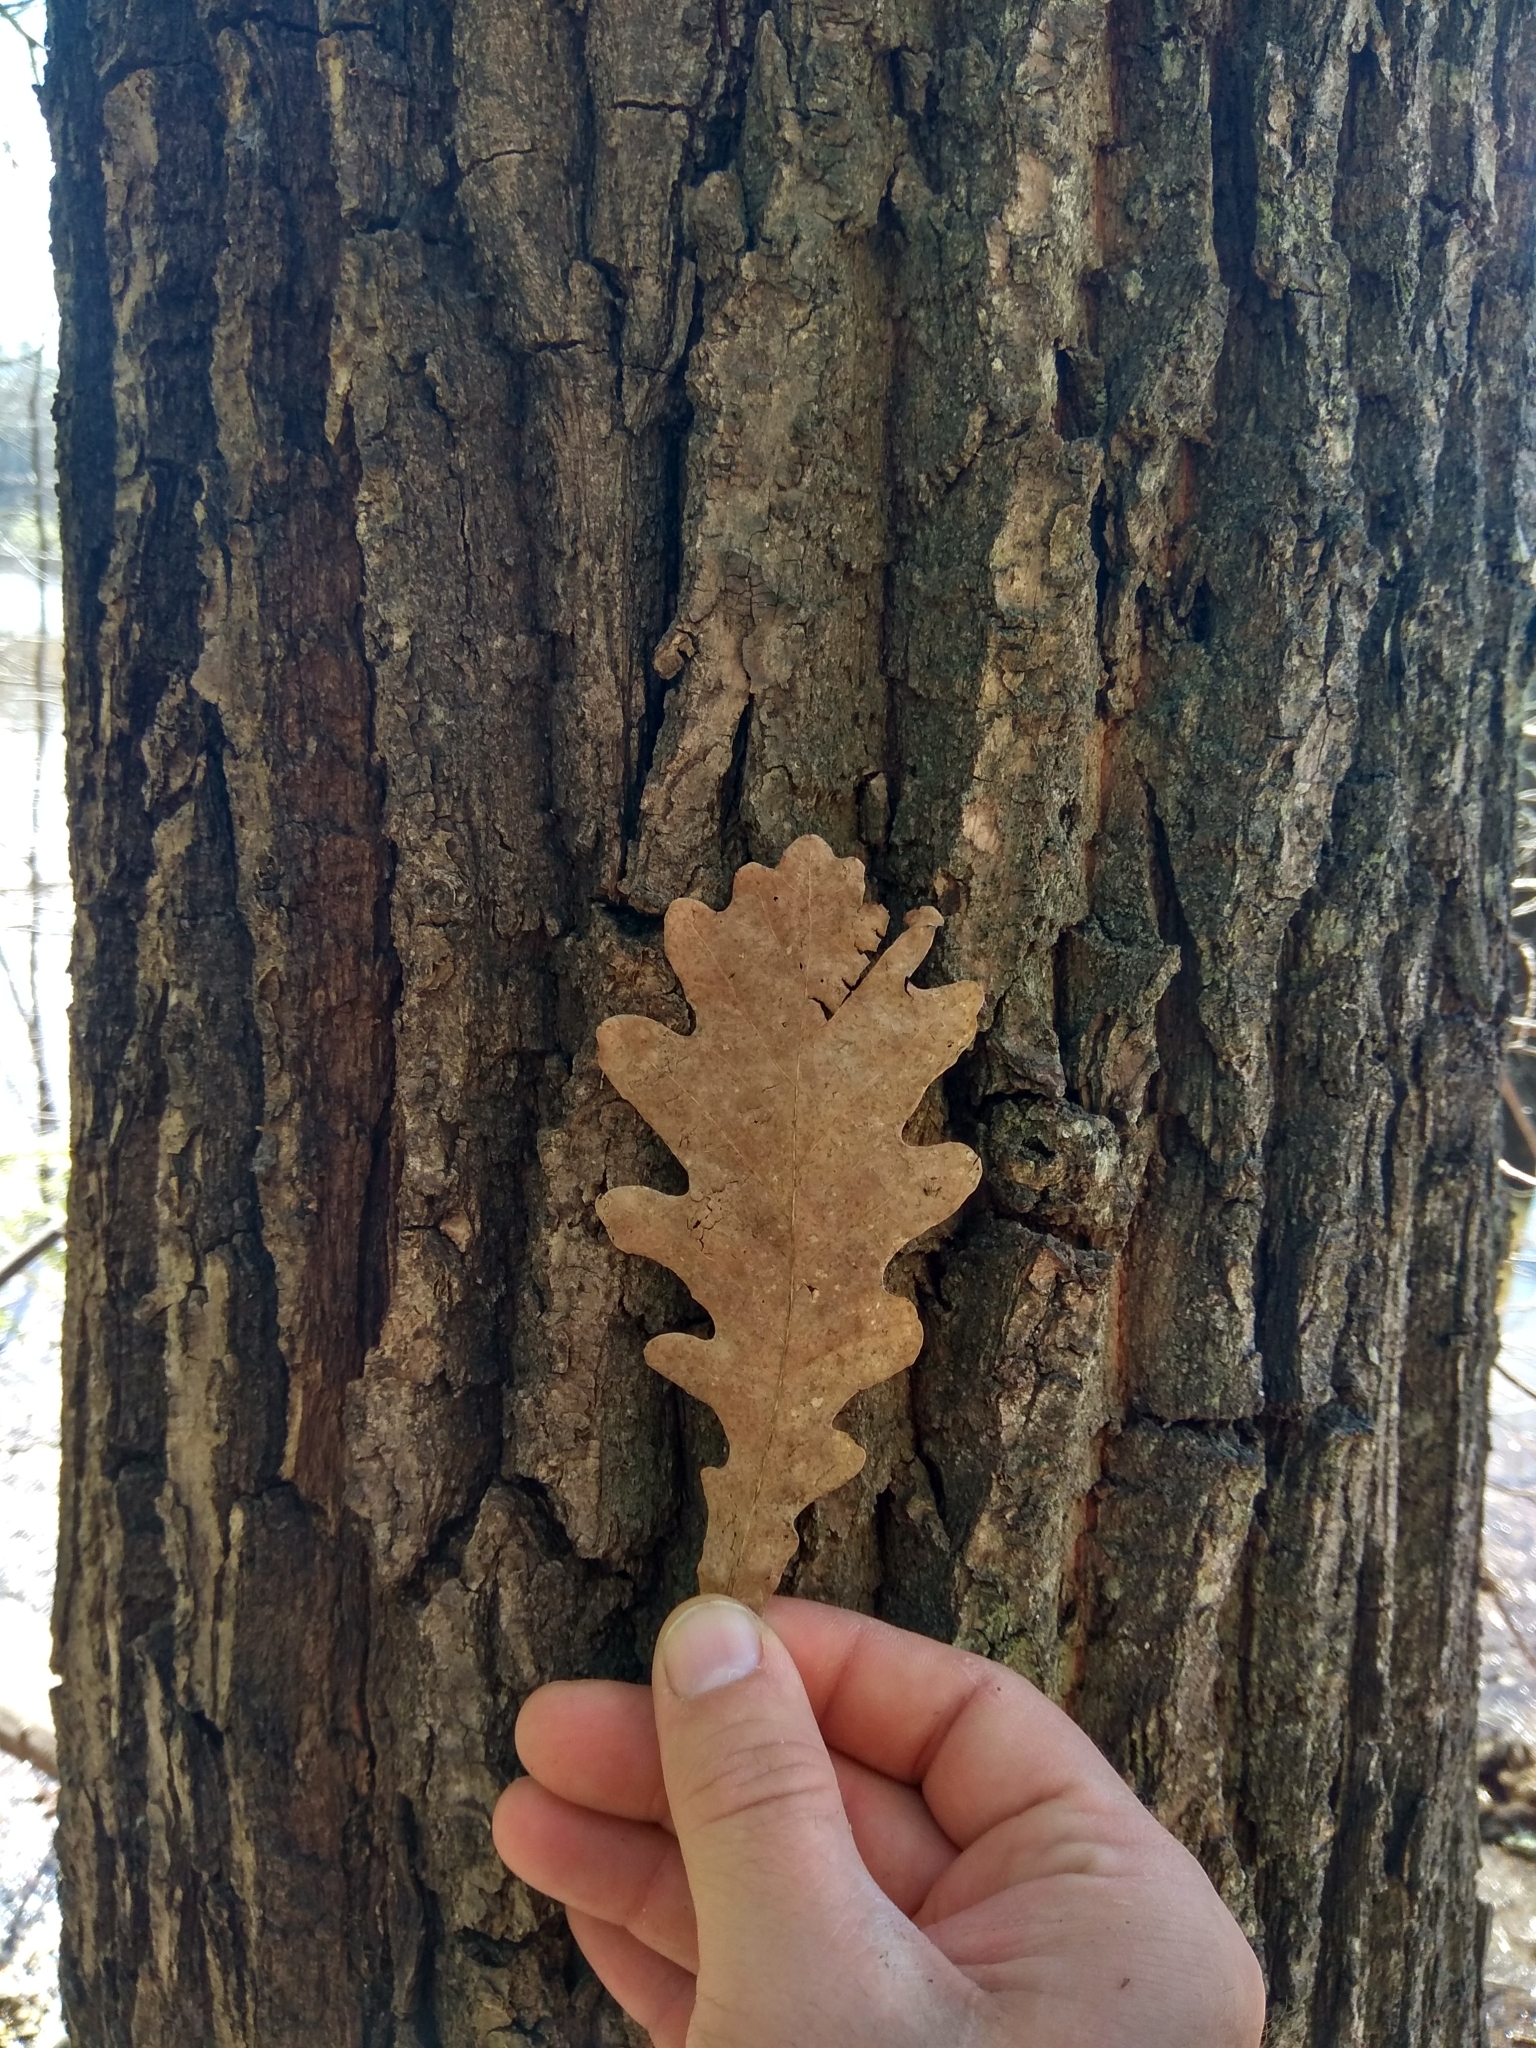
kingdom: Plantae
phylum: Tracheophyta
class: Magnoliopsida
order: Fagales
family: Fagaceae
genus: Quercus
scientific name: Quercus robur
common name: Pedunculate oak
